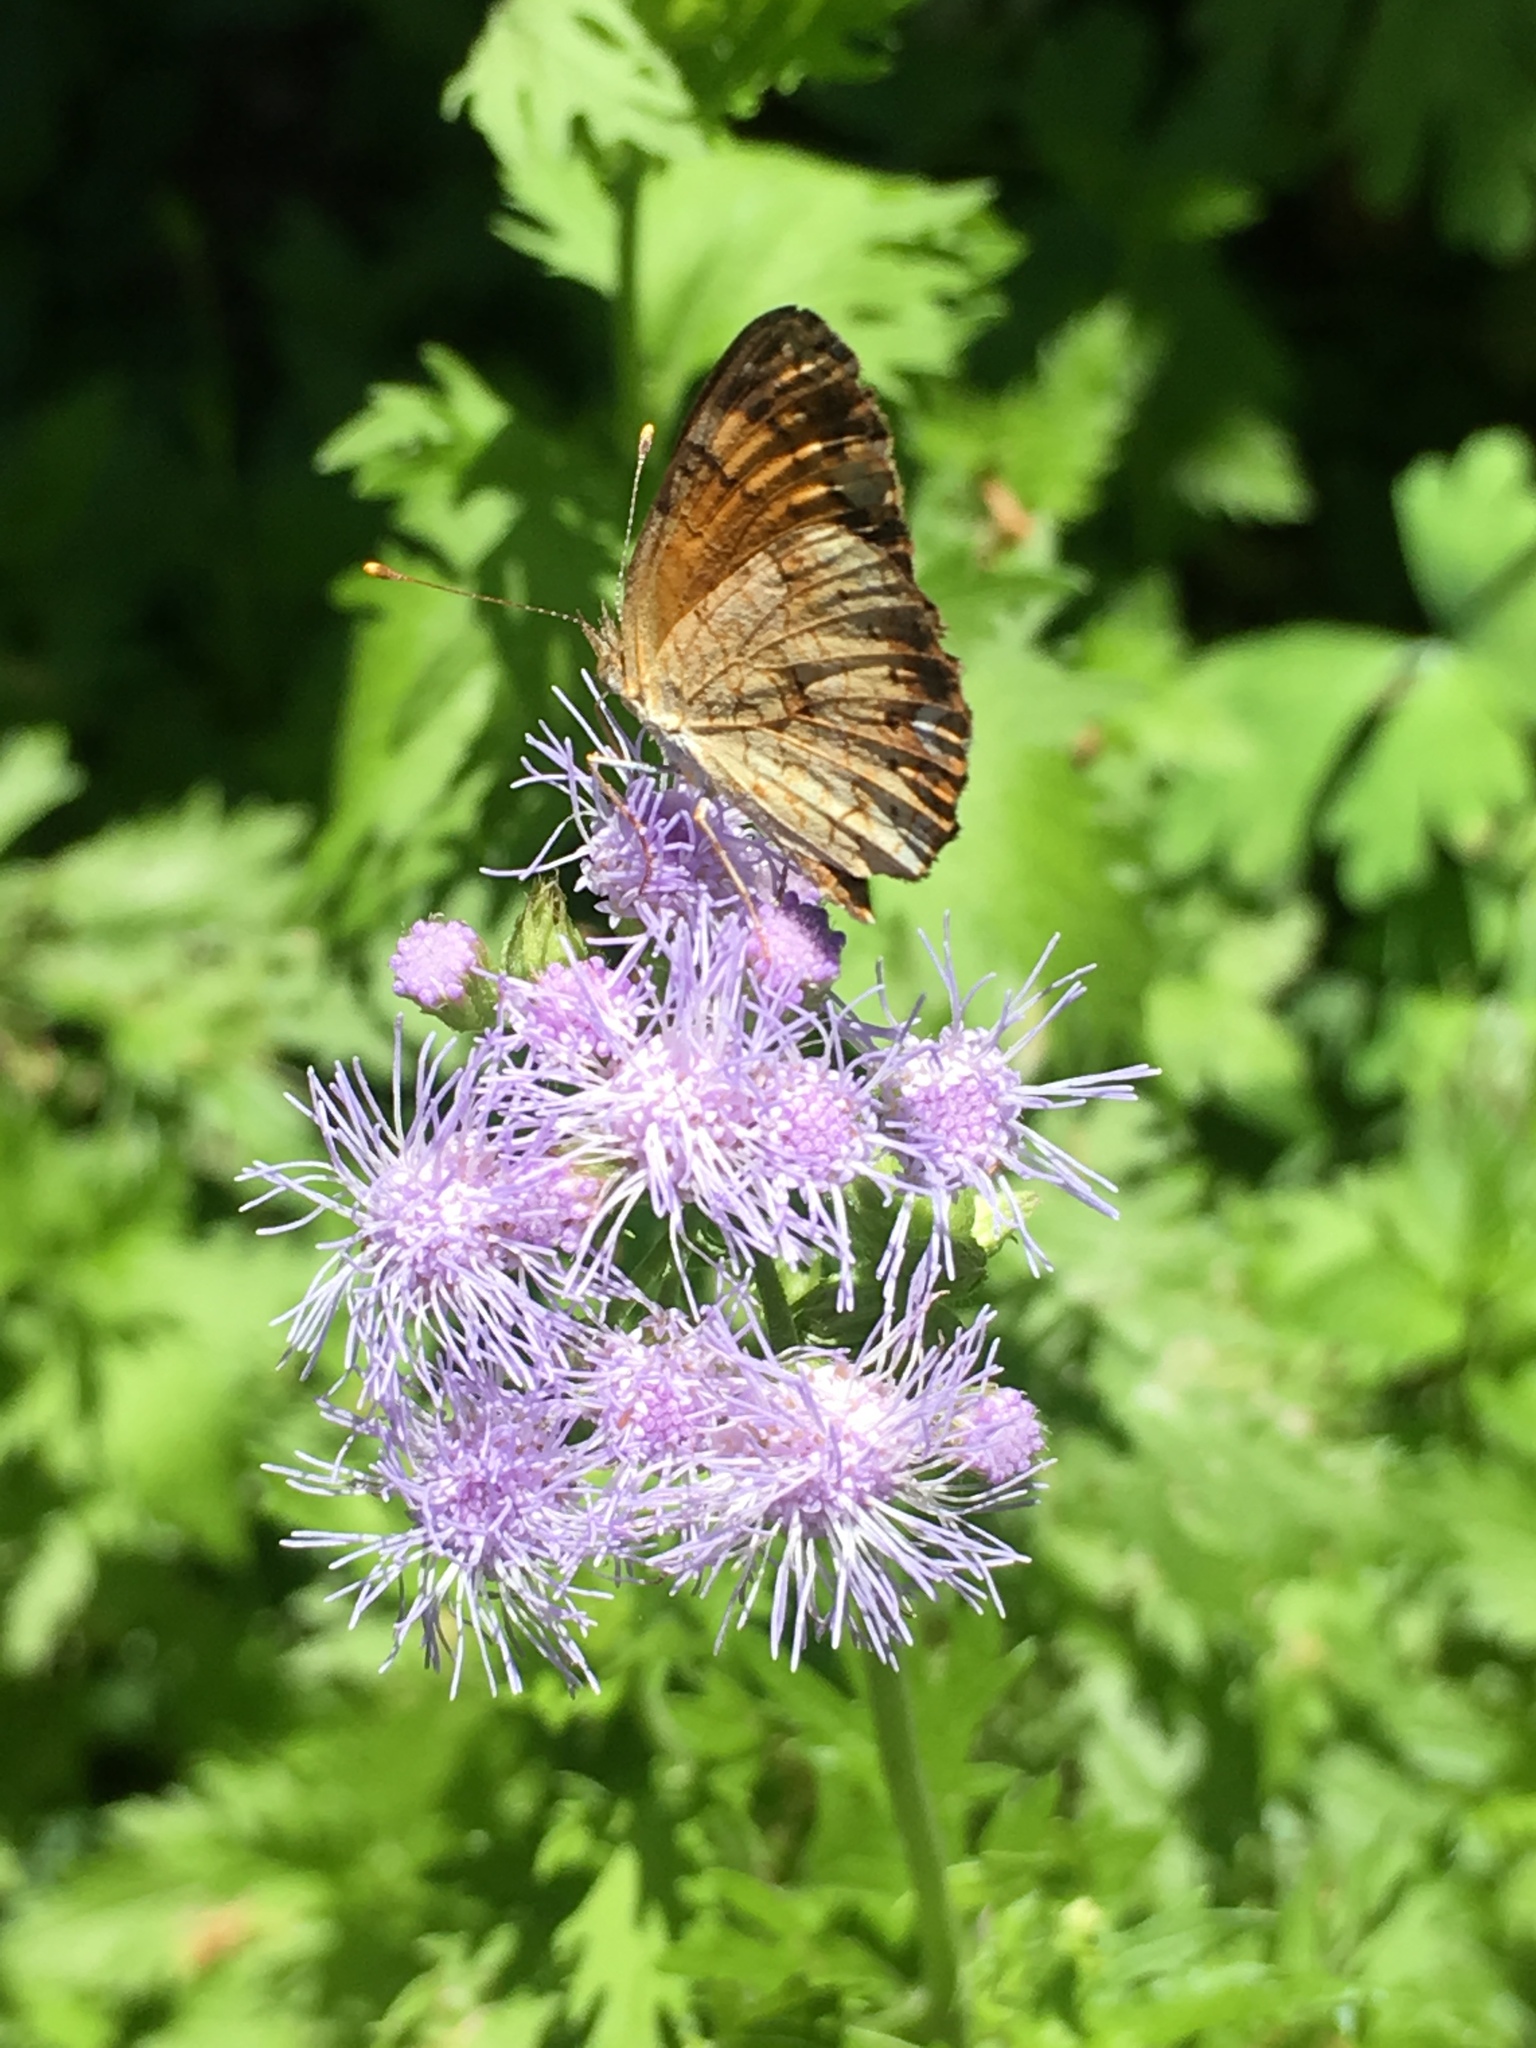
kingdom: Animalia
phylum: Arthropoda
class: Insecta
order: Lepidoptera
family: Nymphalidae
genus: Phyciodes
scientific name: Phyciodes tharos
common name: Pearl crescent
